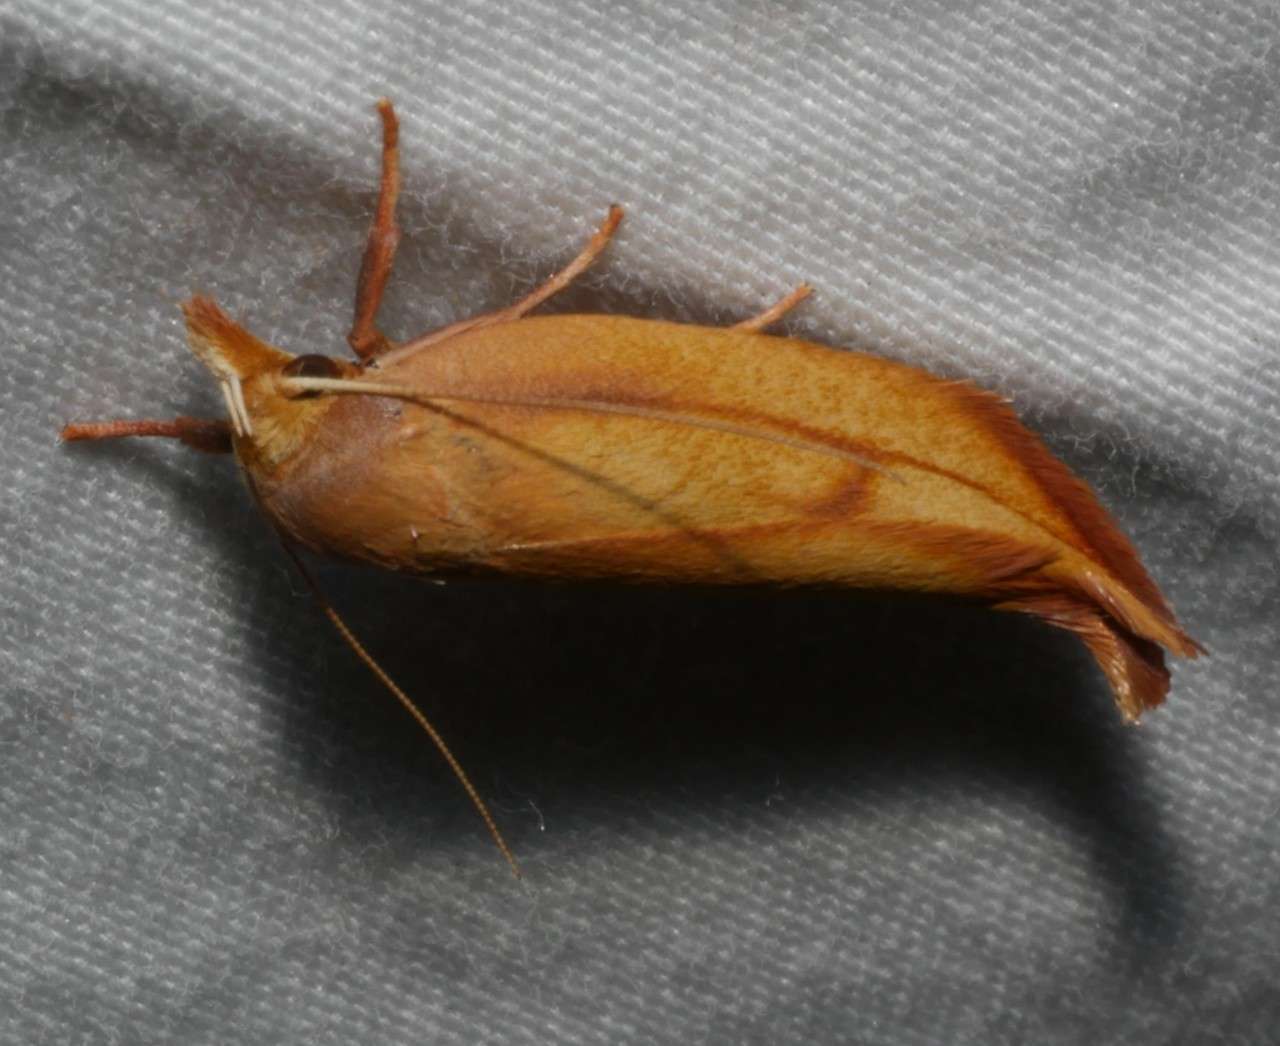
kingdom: Animalia
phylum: Arthropoda
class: Insecta
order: Lepidoptera
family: Oecophoridae
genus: Wingia
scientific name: Wingia aurata
